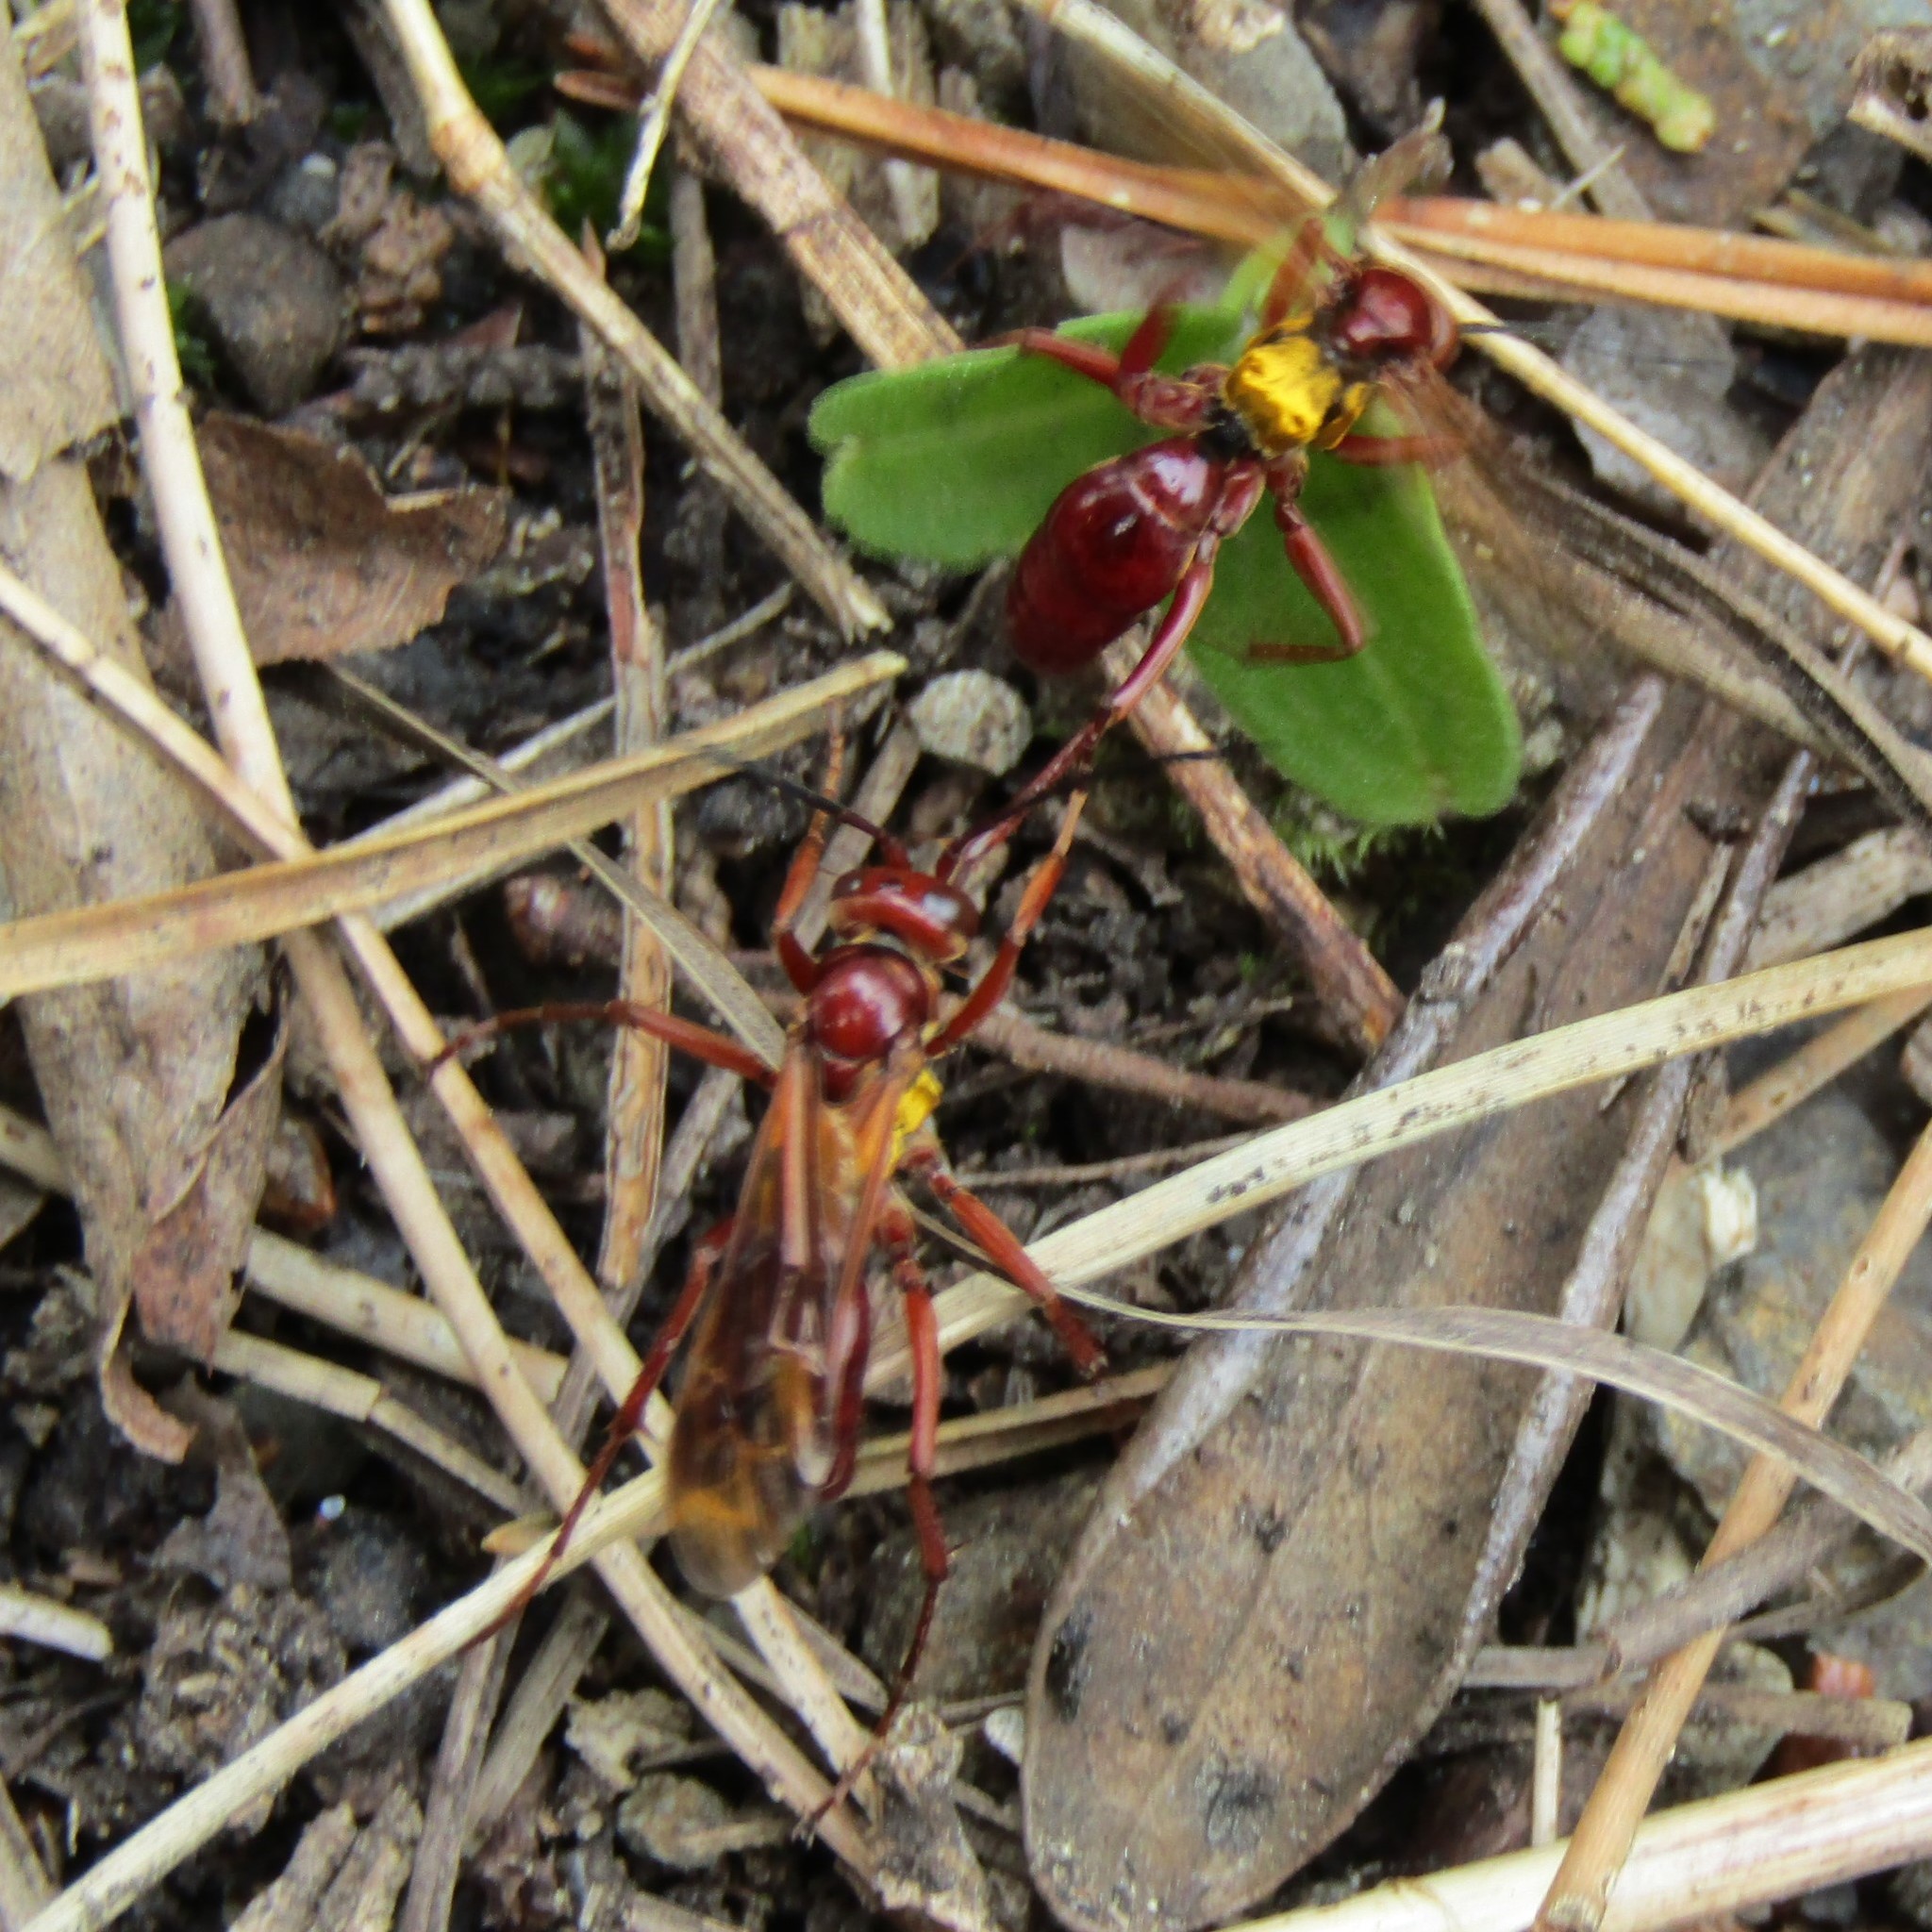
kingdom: Animalia
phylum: Arthropoda
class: Insecta
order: Hymenoptera
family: Pompilidae
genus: Sphictostethus
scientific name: Sphictostethus nitidus
